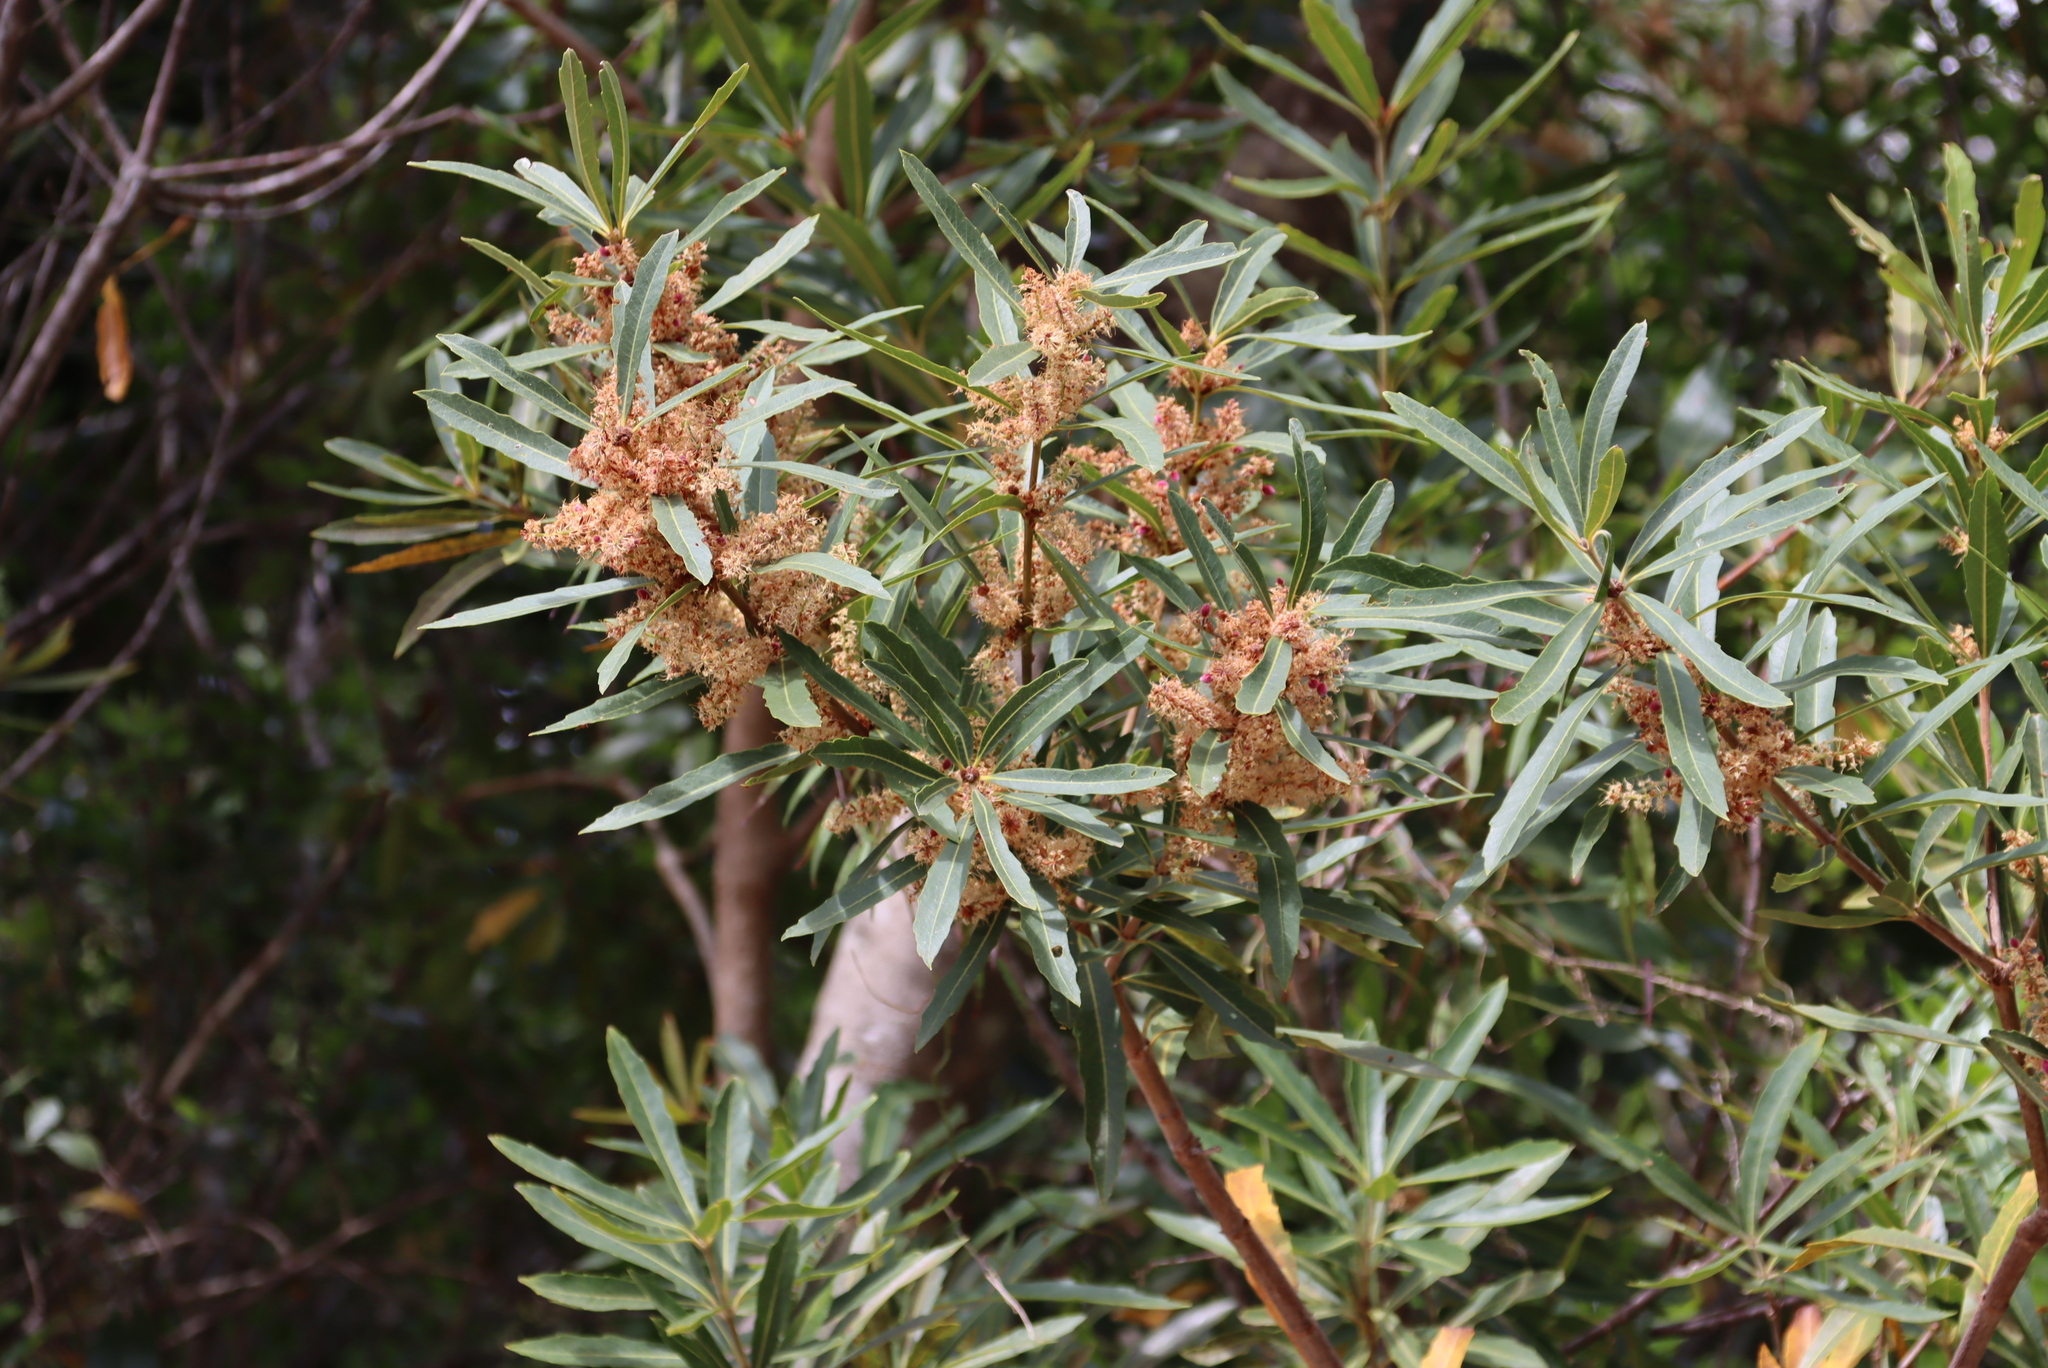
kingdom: Plantae
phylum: Tracheophyta
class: Magnoliopsida
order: Proteales
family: Proteaceae
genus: Brabejum
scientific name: Brabejum stellatifolium
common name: Wild almond
